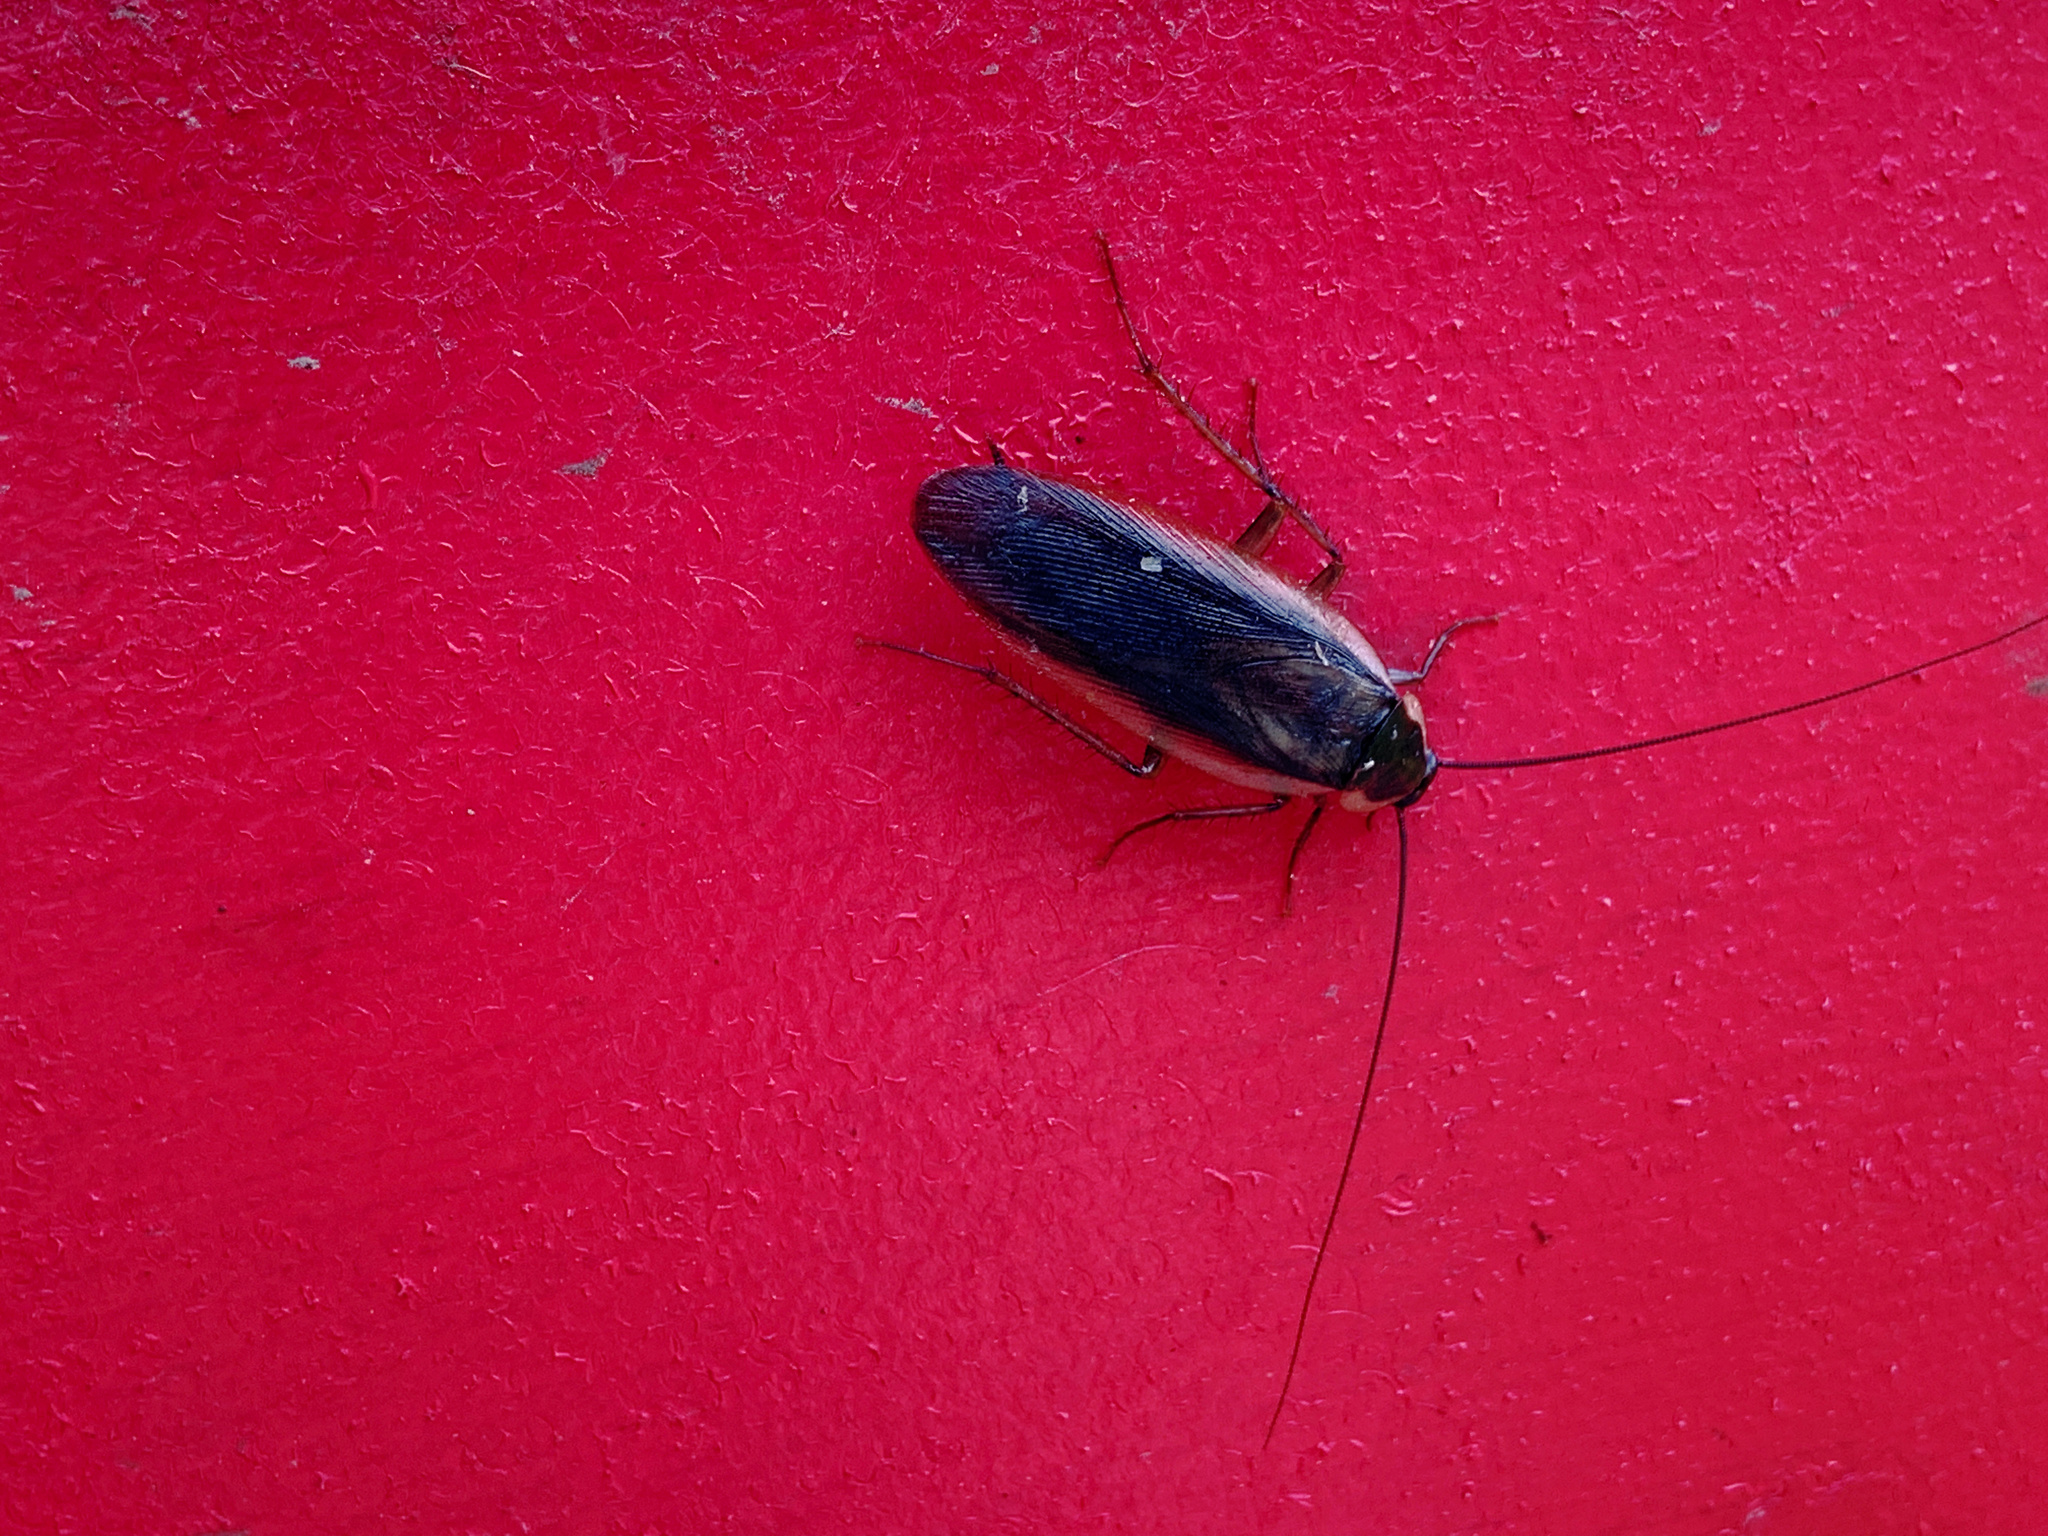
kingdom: Animalia
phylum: Arthropoda
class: Insecta
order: Blattodea
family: Ectobiidae
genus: Parcoblatta
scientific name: Parcoblatta pennsylvanica
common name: Pennsylvanian wood cockroach
